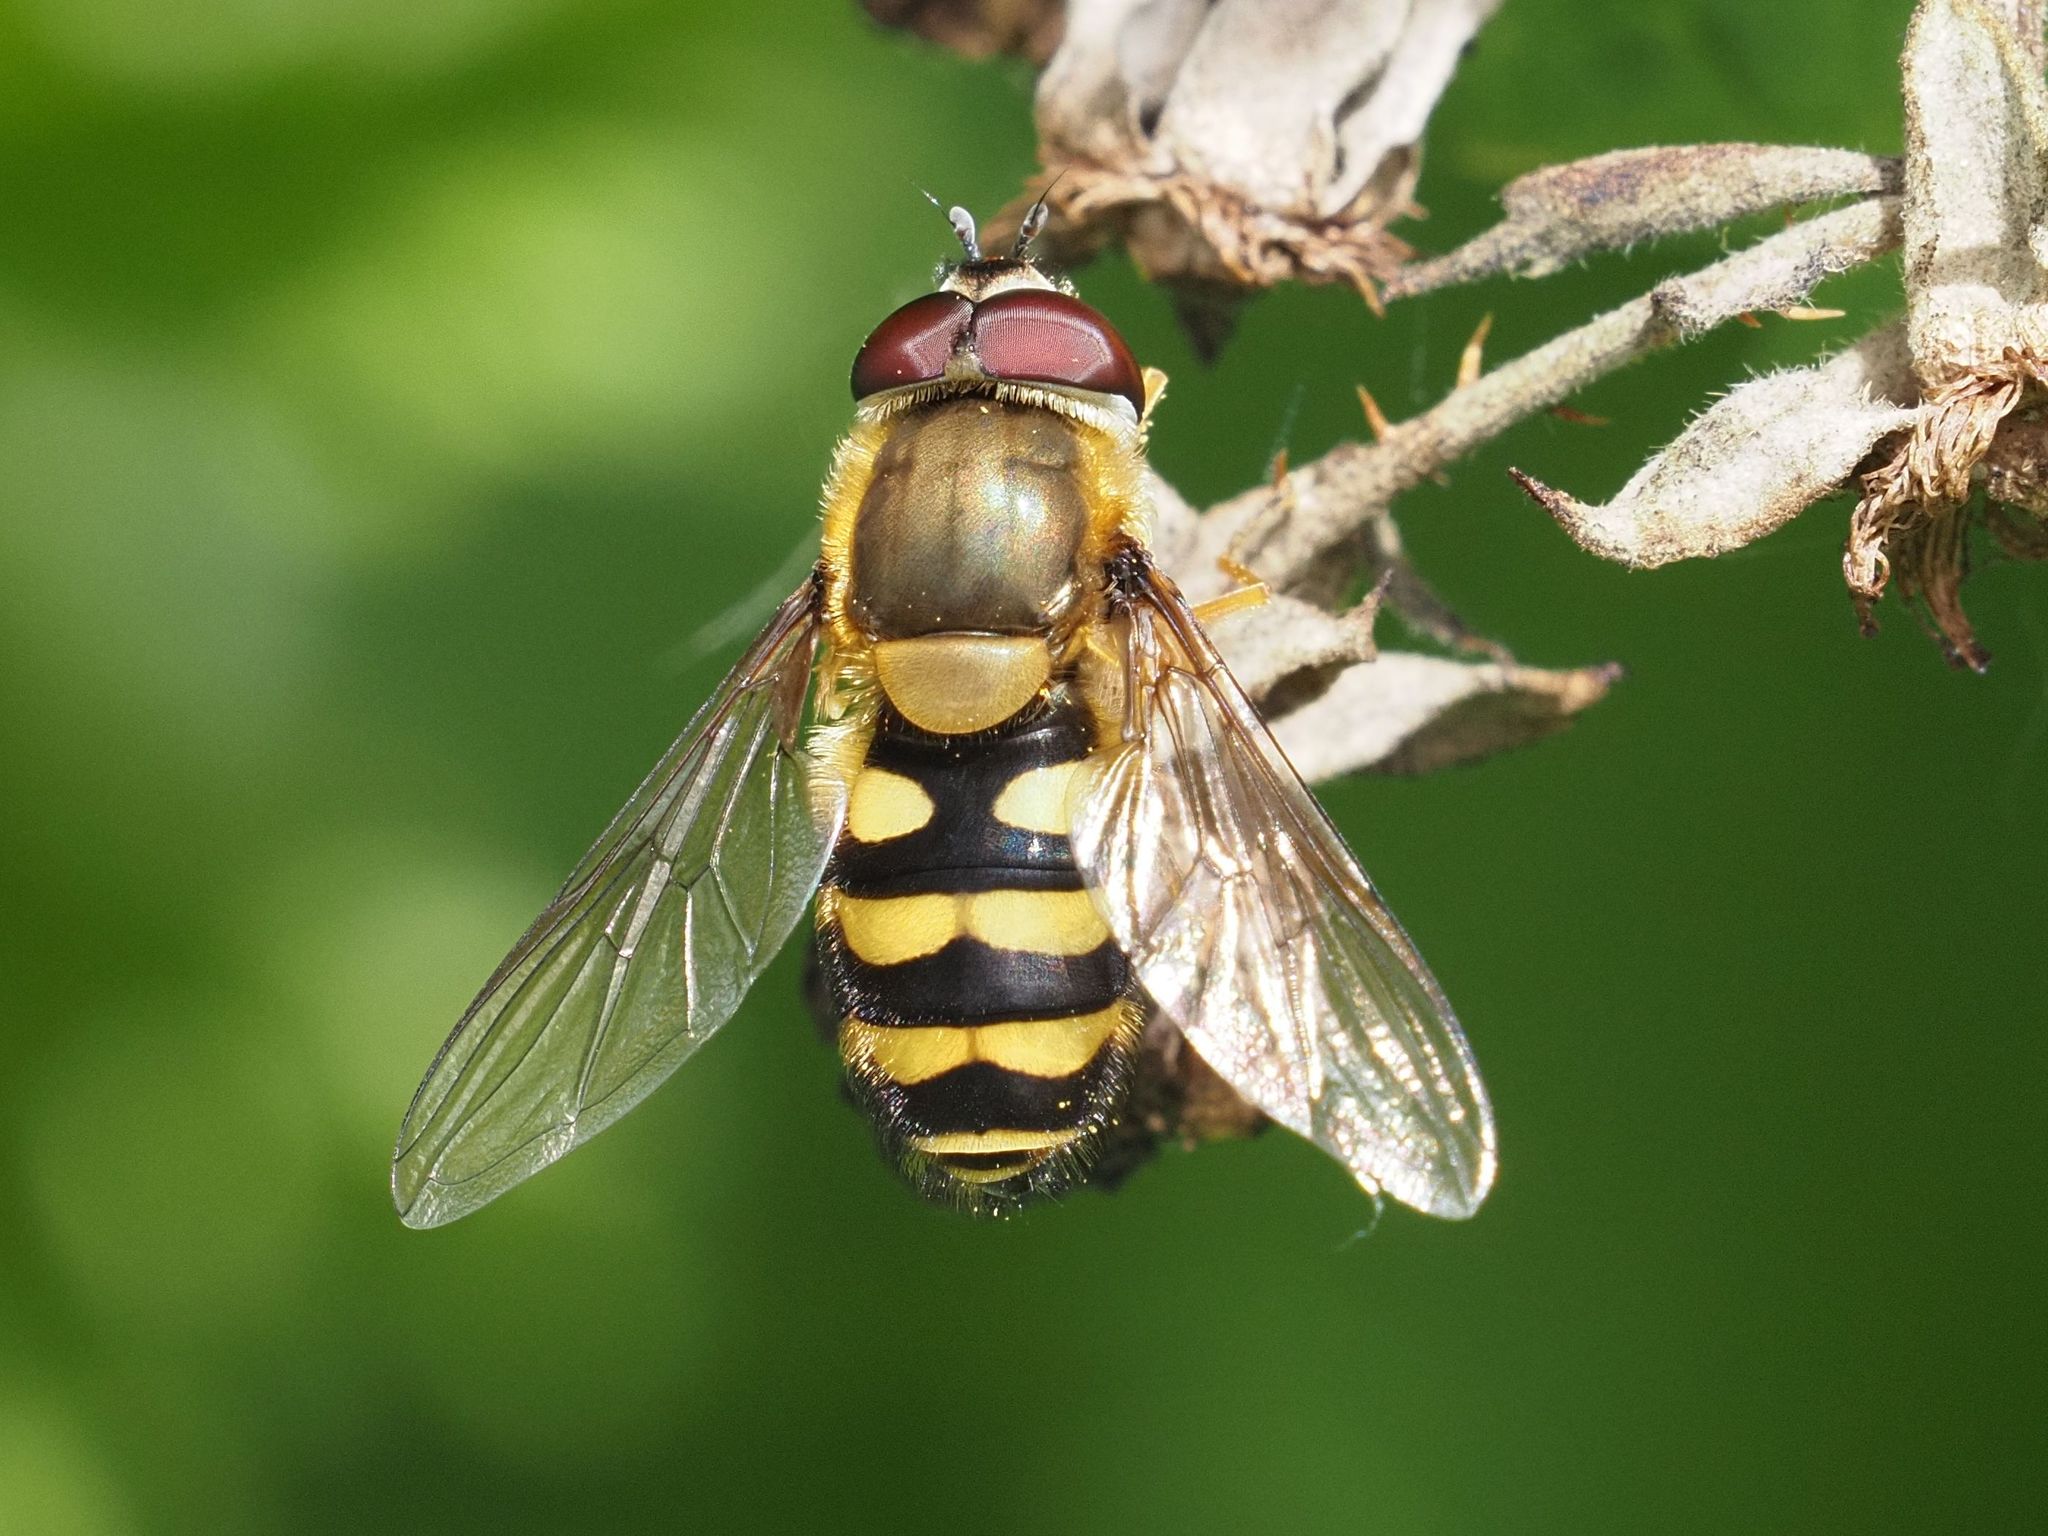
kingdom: Animalia
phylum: Arthropoda
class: Insecta
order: Diptera
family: Syrphidae
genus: Syrphus
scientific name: Syrphus
